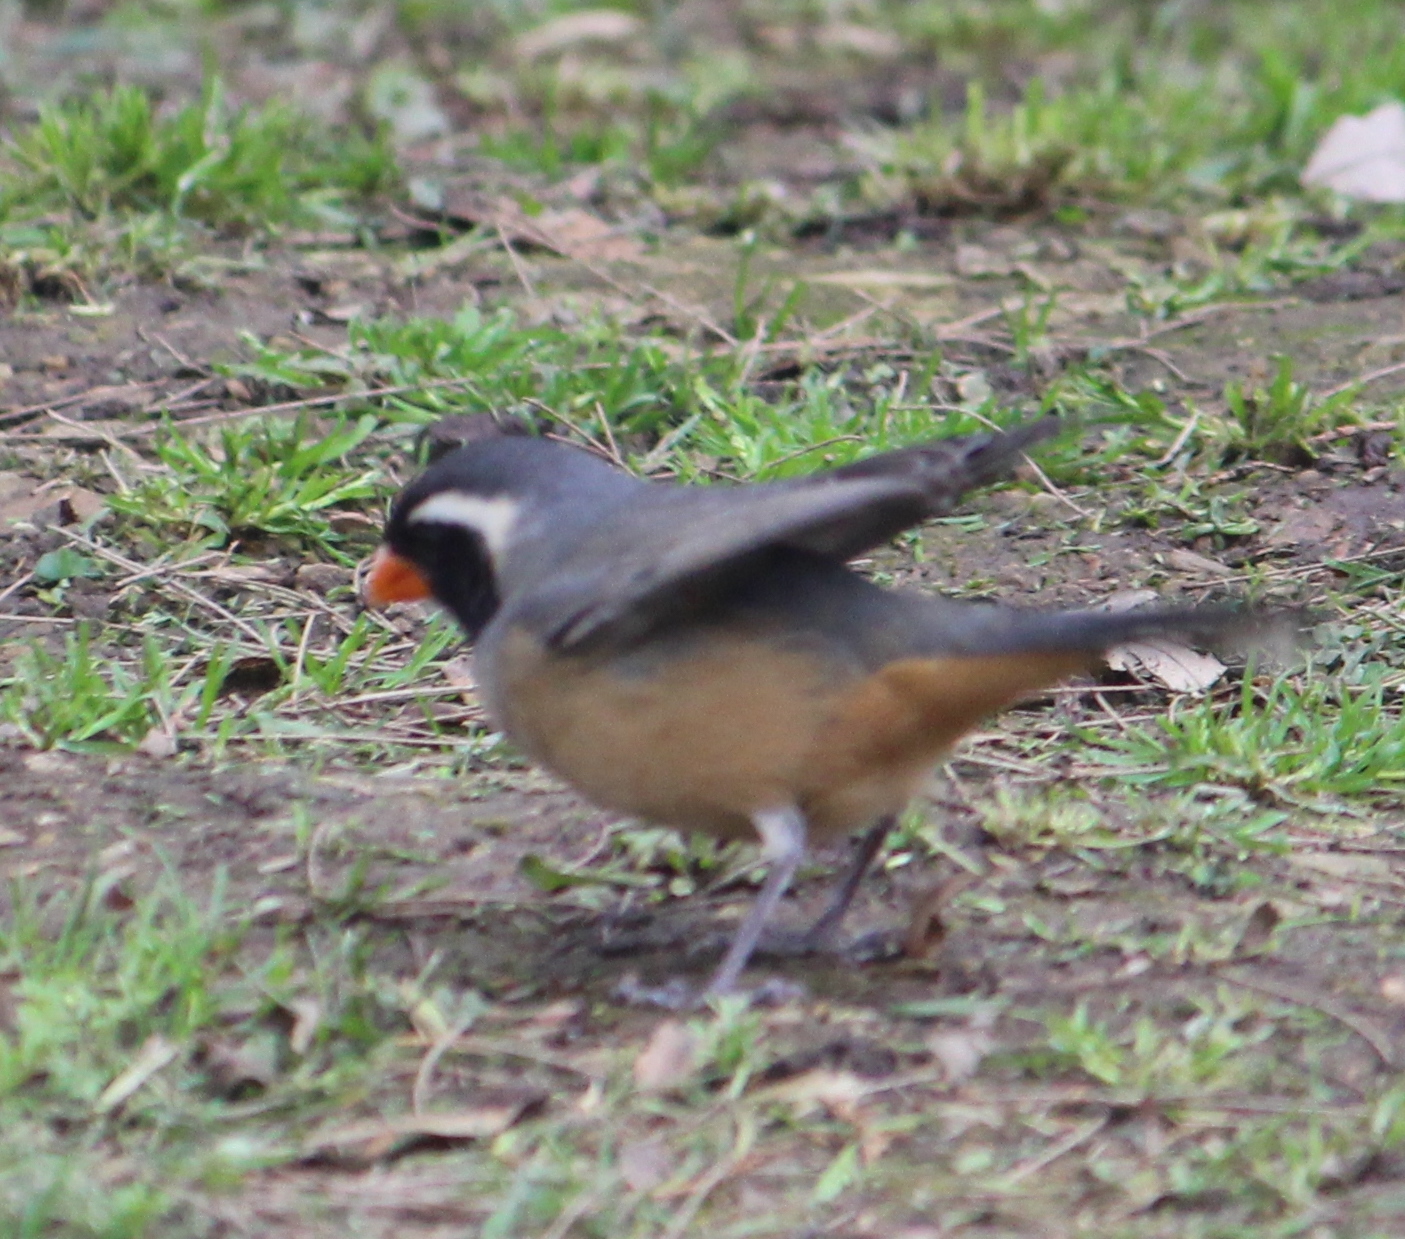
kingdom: Animalia
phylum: Chordata
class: Aves
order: Passeriformes
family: Thraupidae
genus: Saltator
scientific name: Saltator aurantiirostris
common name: Golden-billed saltator
